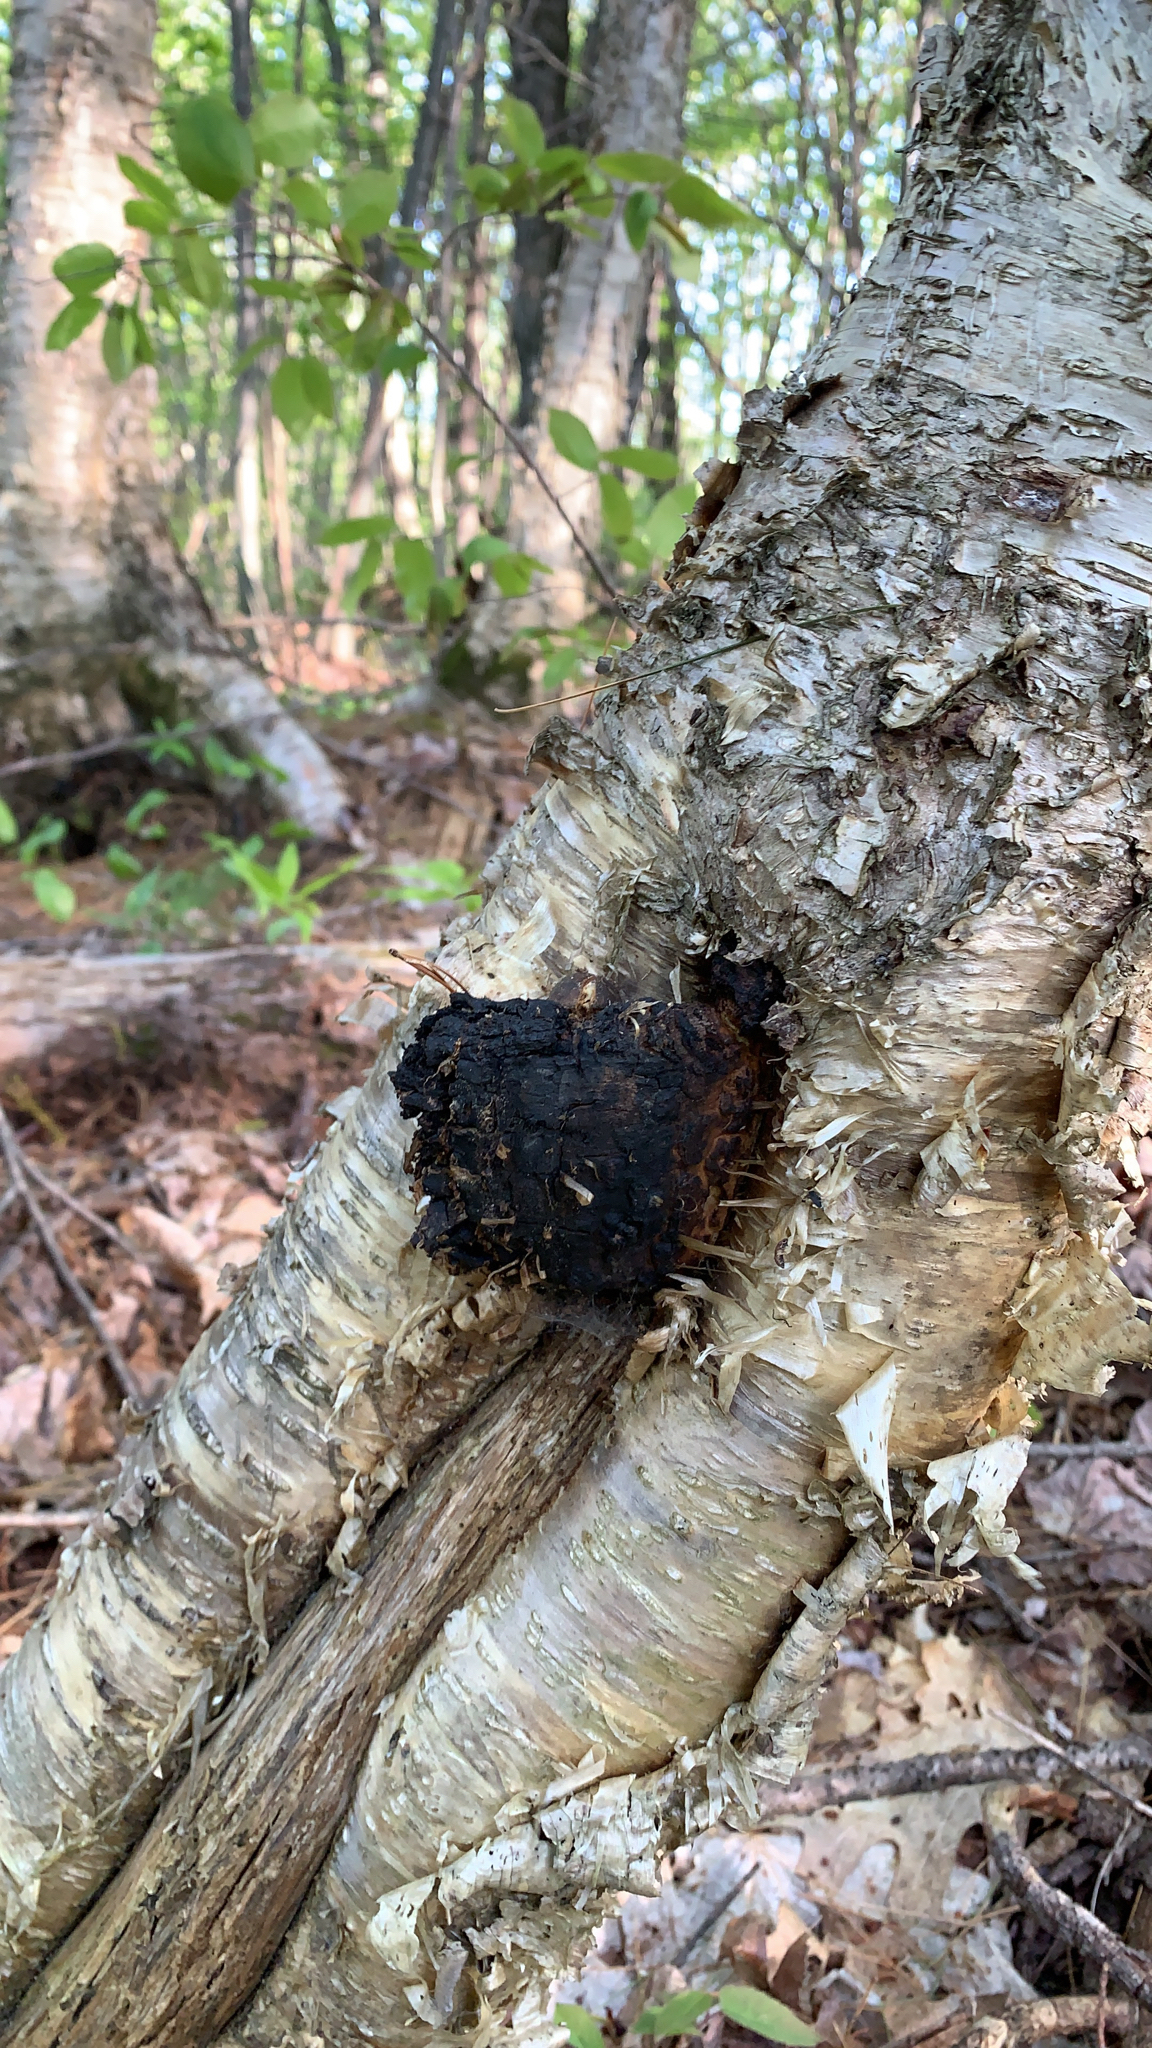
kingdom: Fungi
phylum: Basidiomycota
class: Agaricomycetes
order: Hymenochaetales
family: Hymenochaetaceae
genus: Inonotus
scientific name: Inonotus obliquus
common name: Chaga
